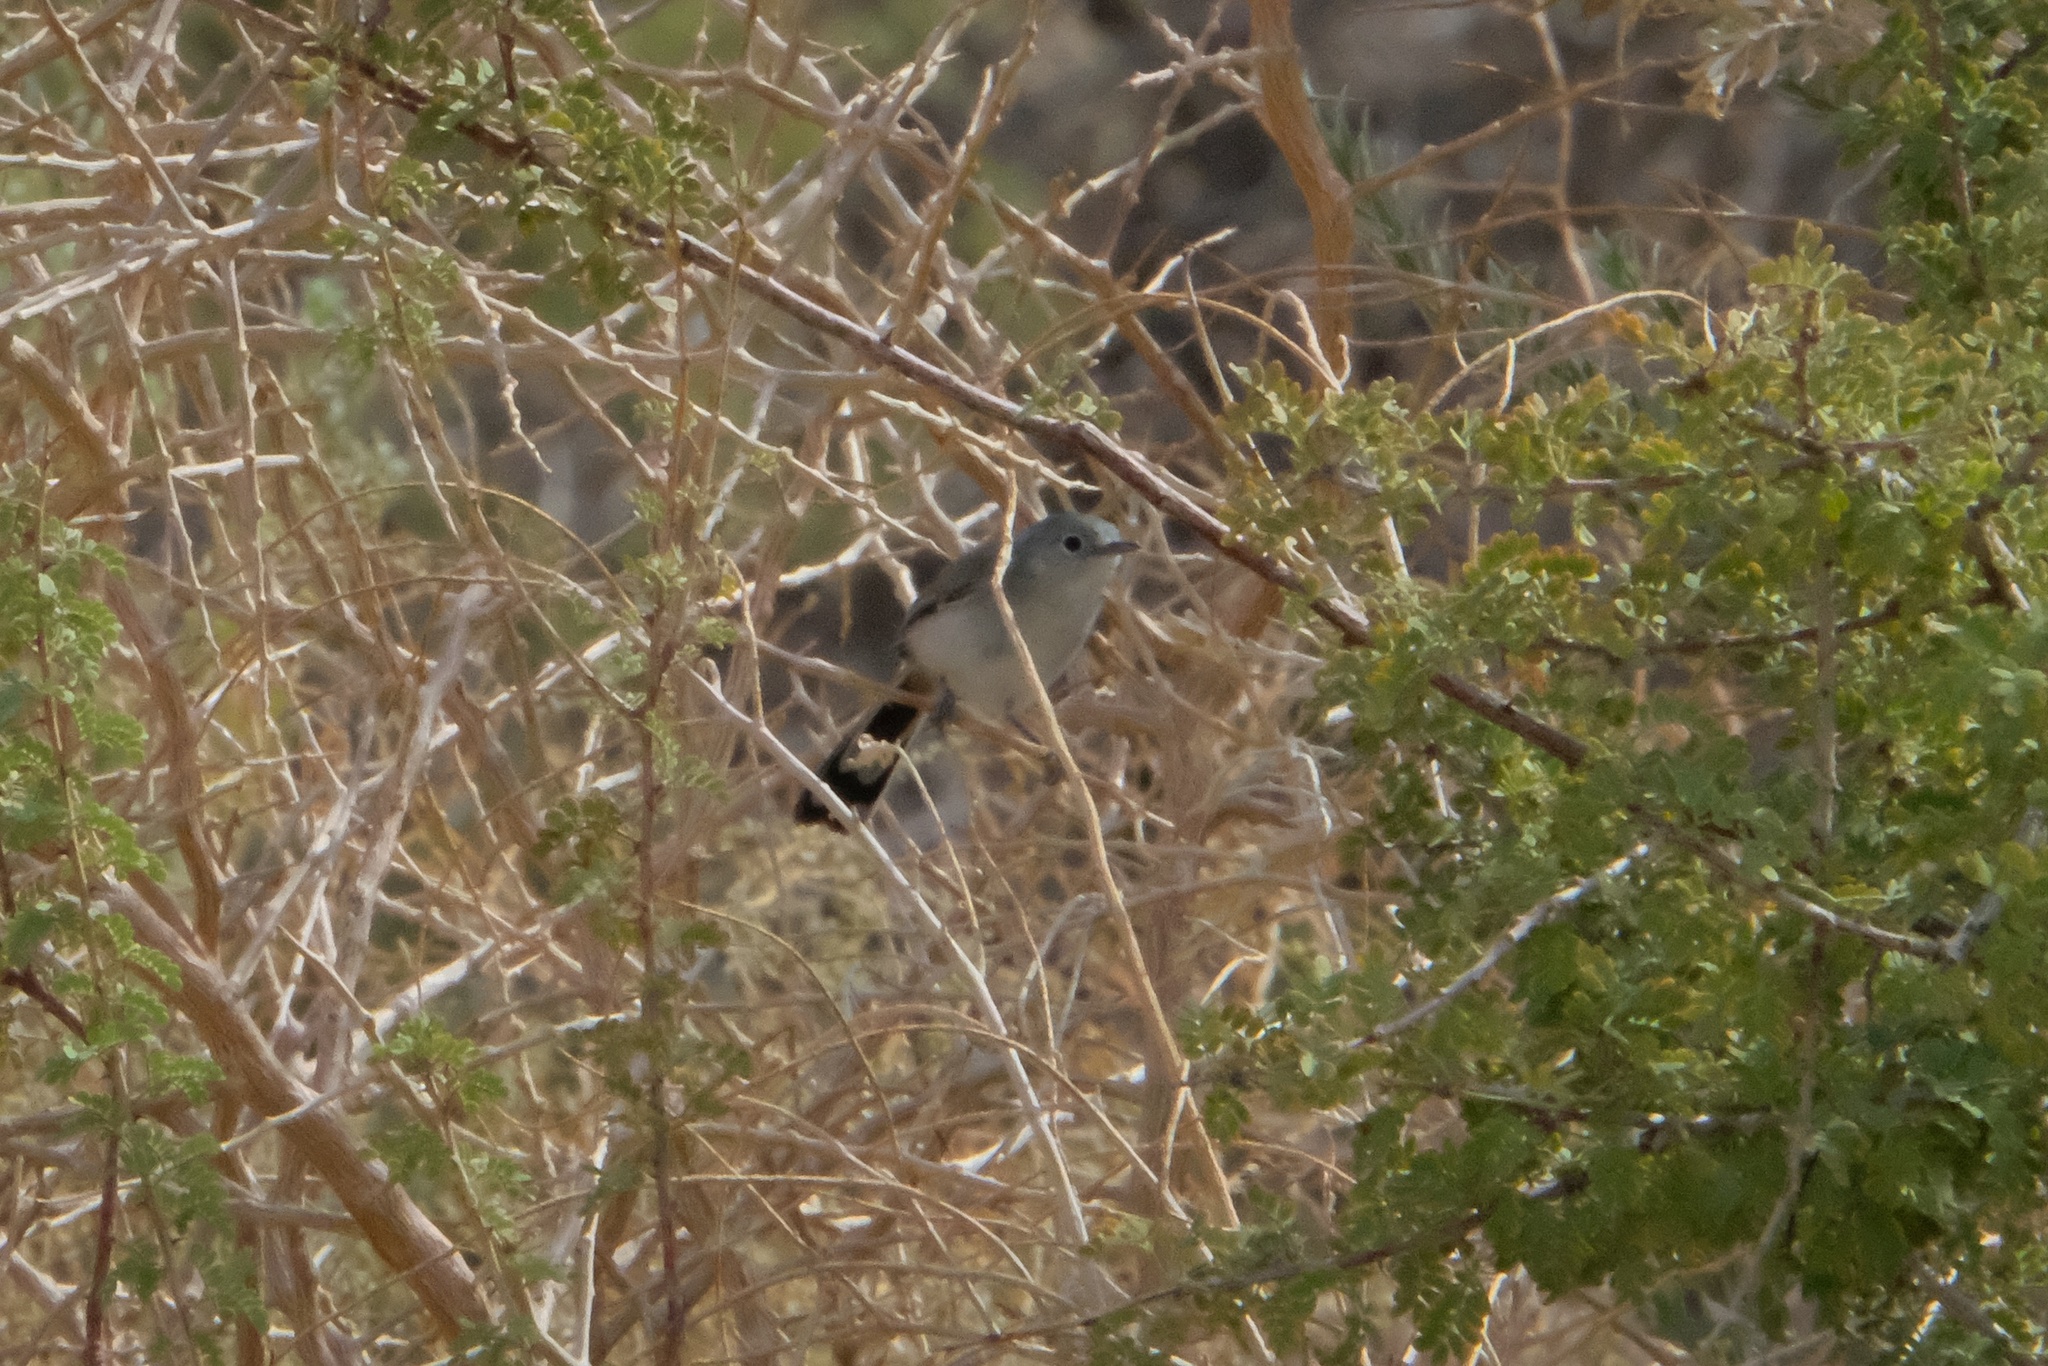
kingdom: Animalia
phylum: Chordata
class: Aves
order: Passeriformes
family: Polioptilidae
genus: Polioptila
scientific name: Polioptila melanura
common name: Black-tailed gnatcatcher
